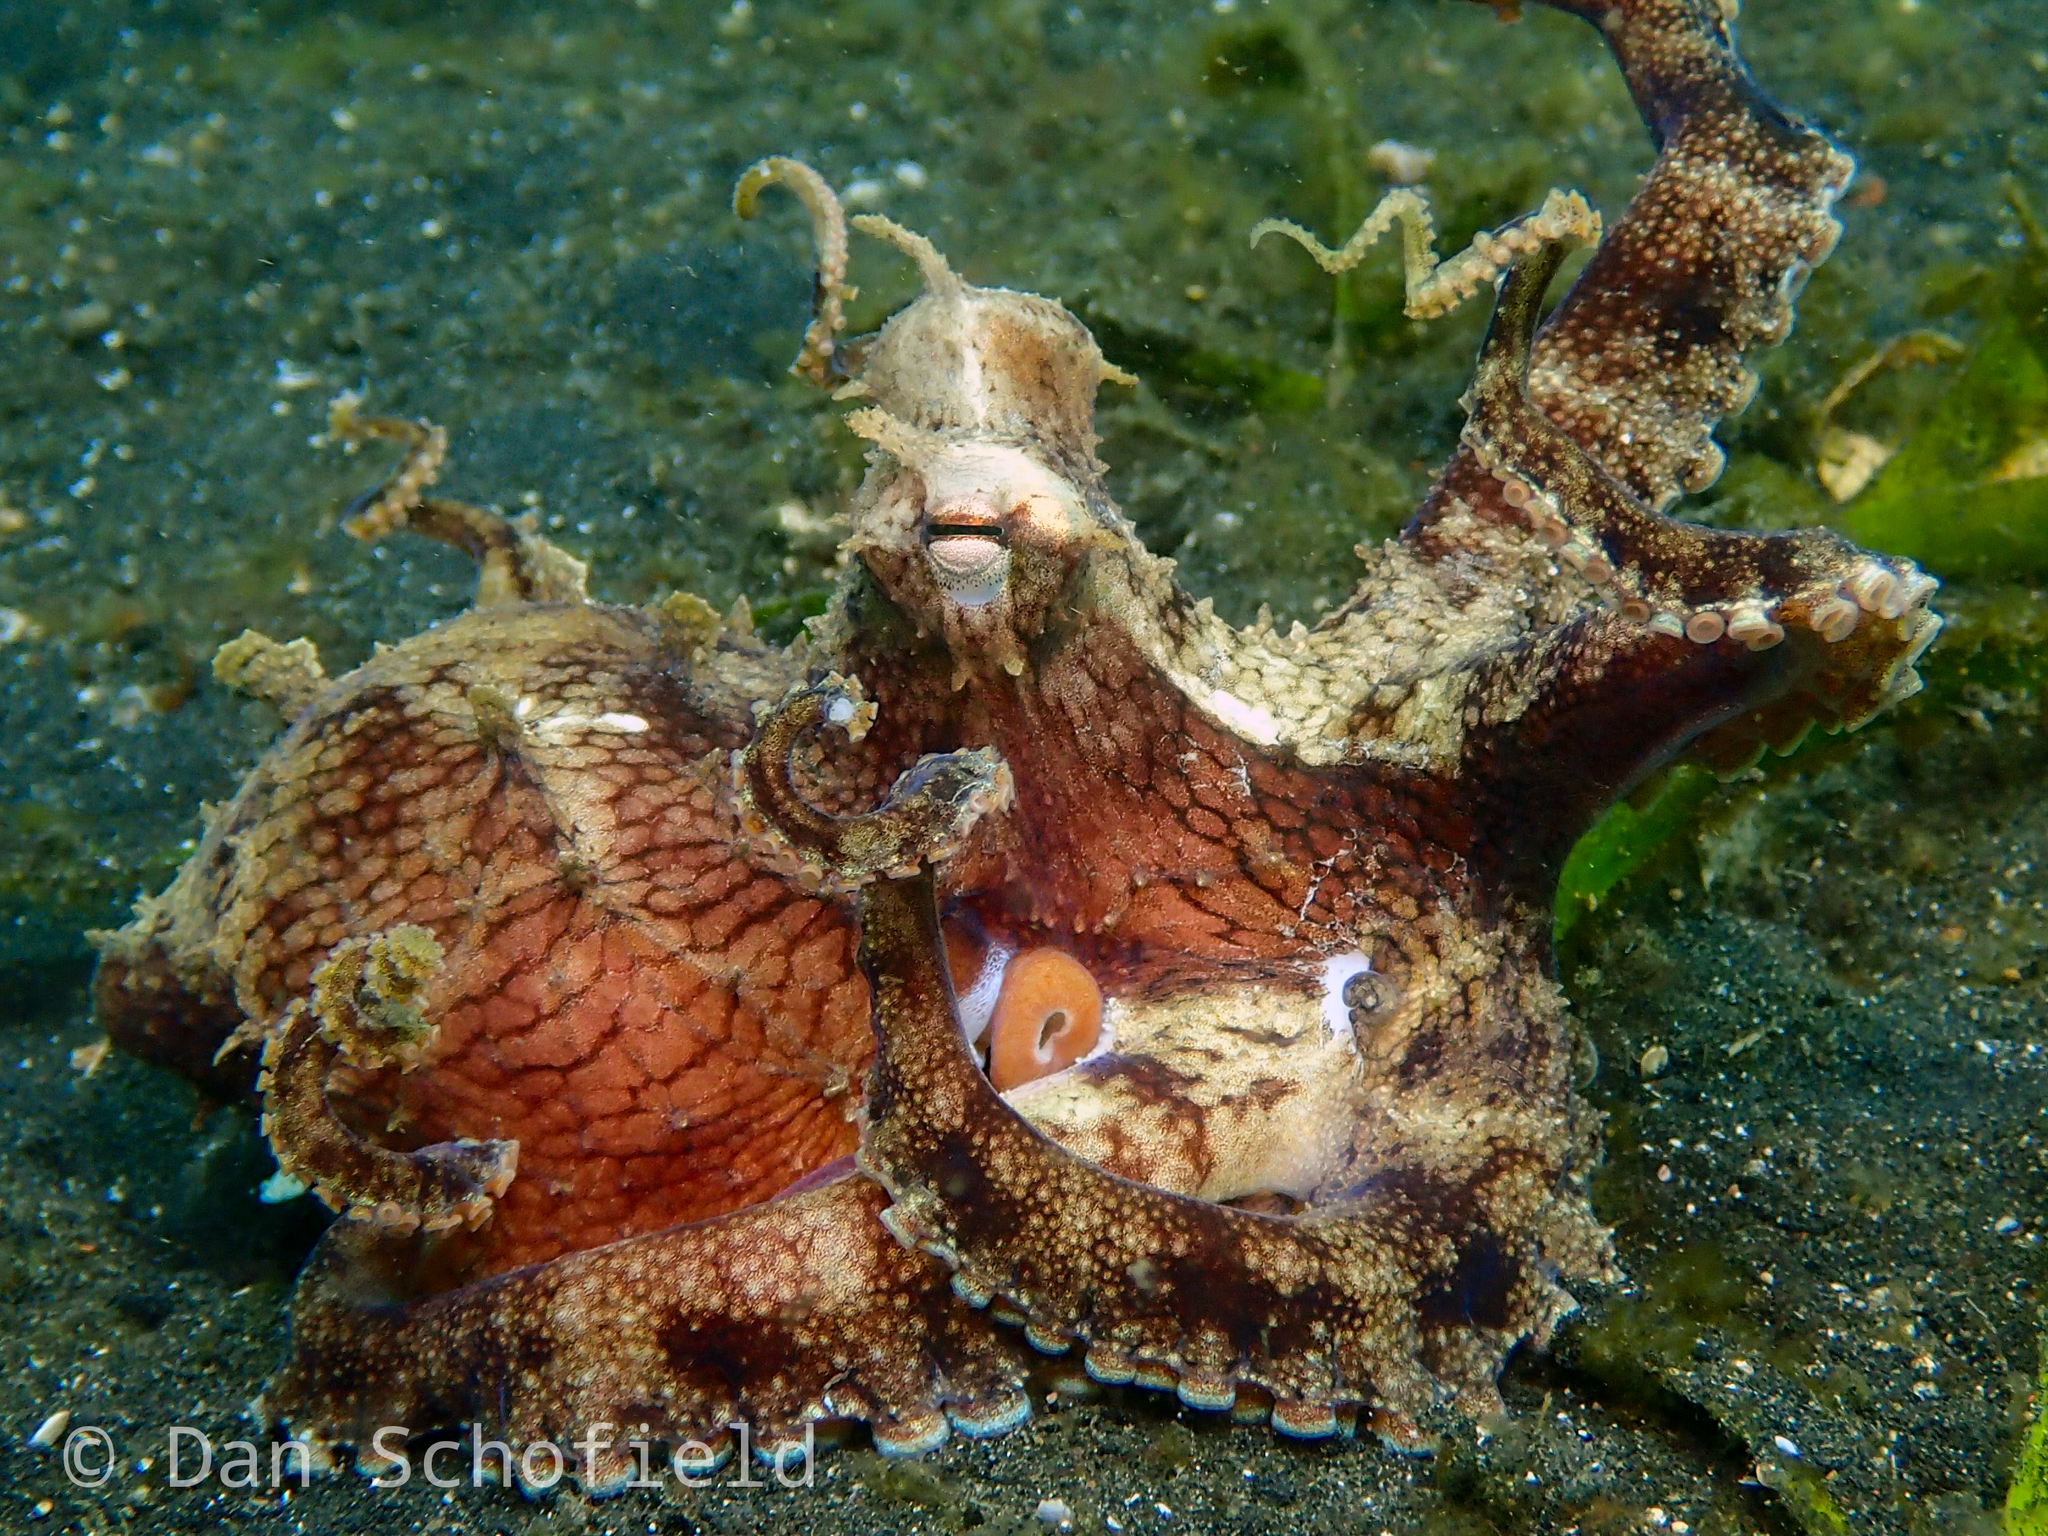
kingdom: Animalia
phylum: Mollusca
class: Cephalopoda
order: Octopoda
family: Octopodidae
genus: Amphioctopus
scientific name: Amphioctopus marginatus
